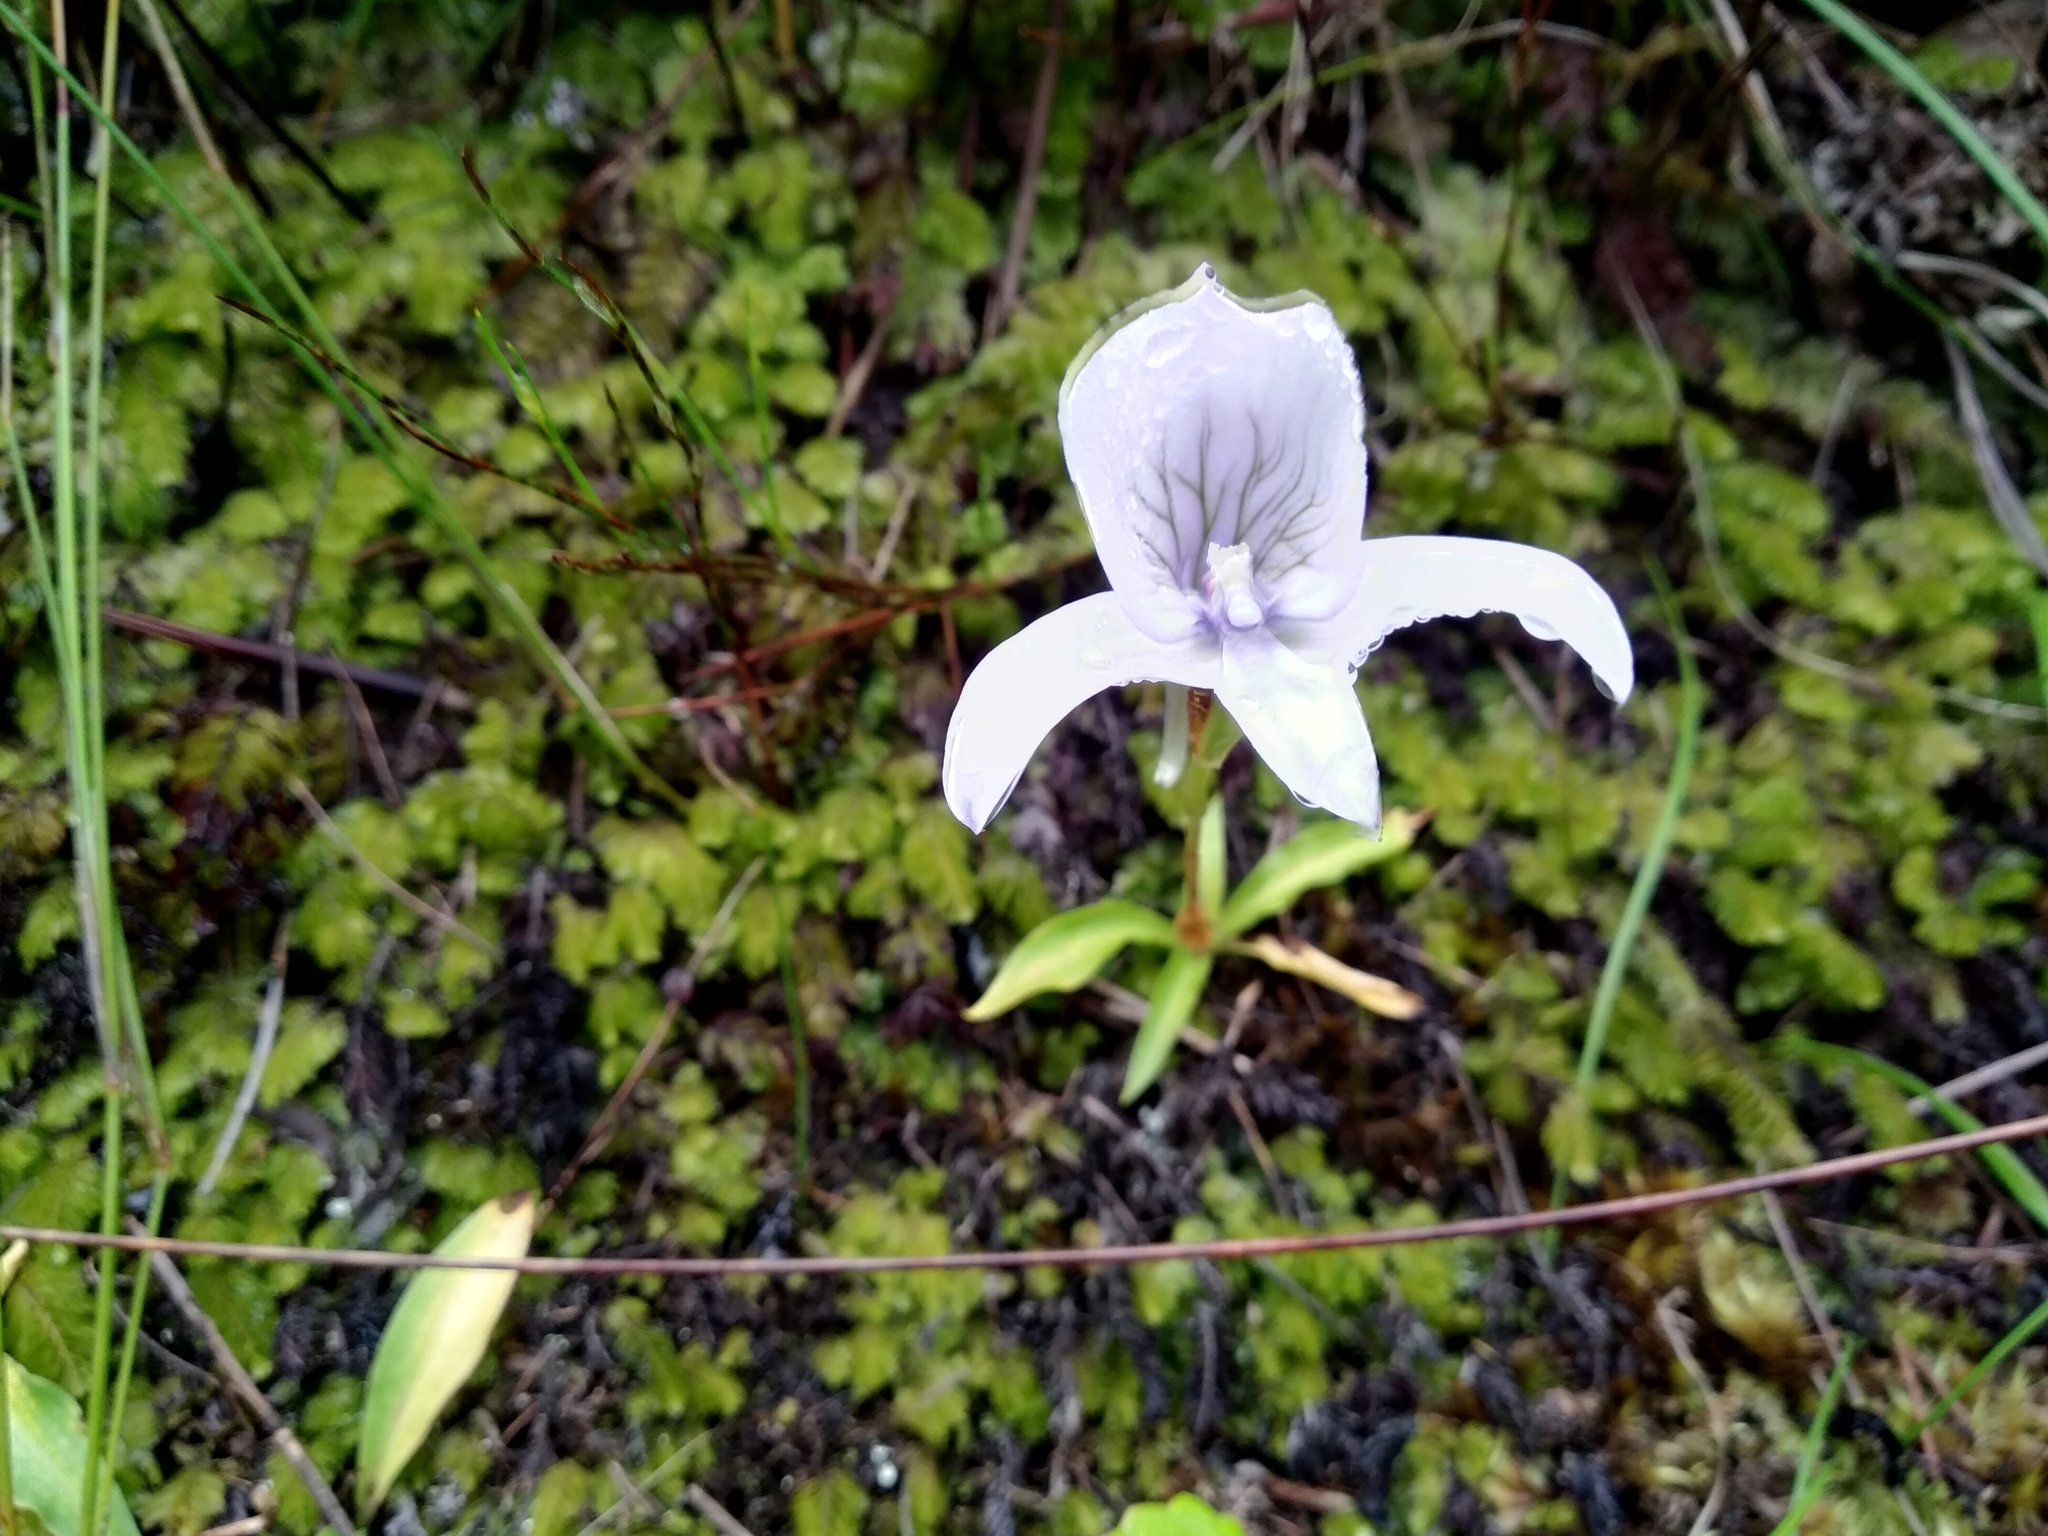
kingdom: Plantae
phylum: Tracheophyta
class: Liliopsida
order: Asparagales
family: Orchidaceae
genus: Disa
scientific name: Disa longicornu
